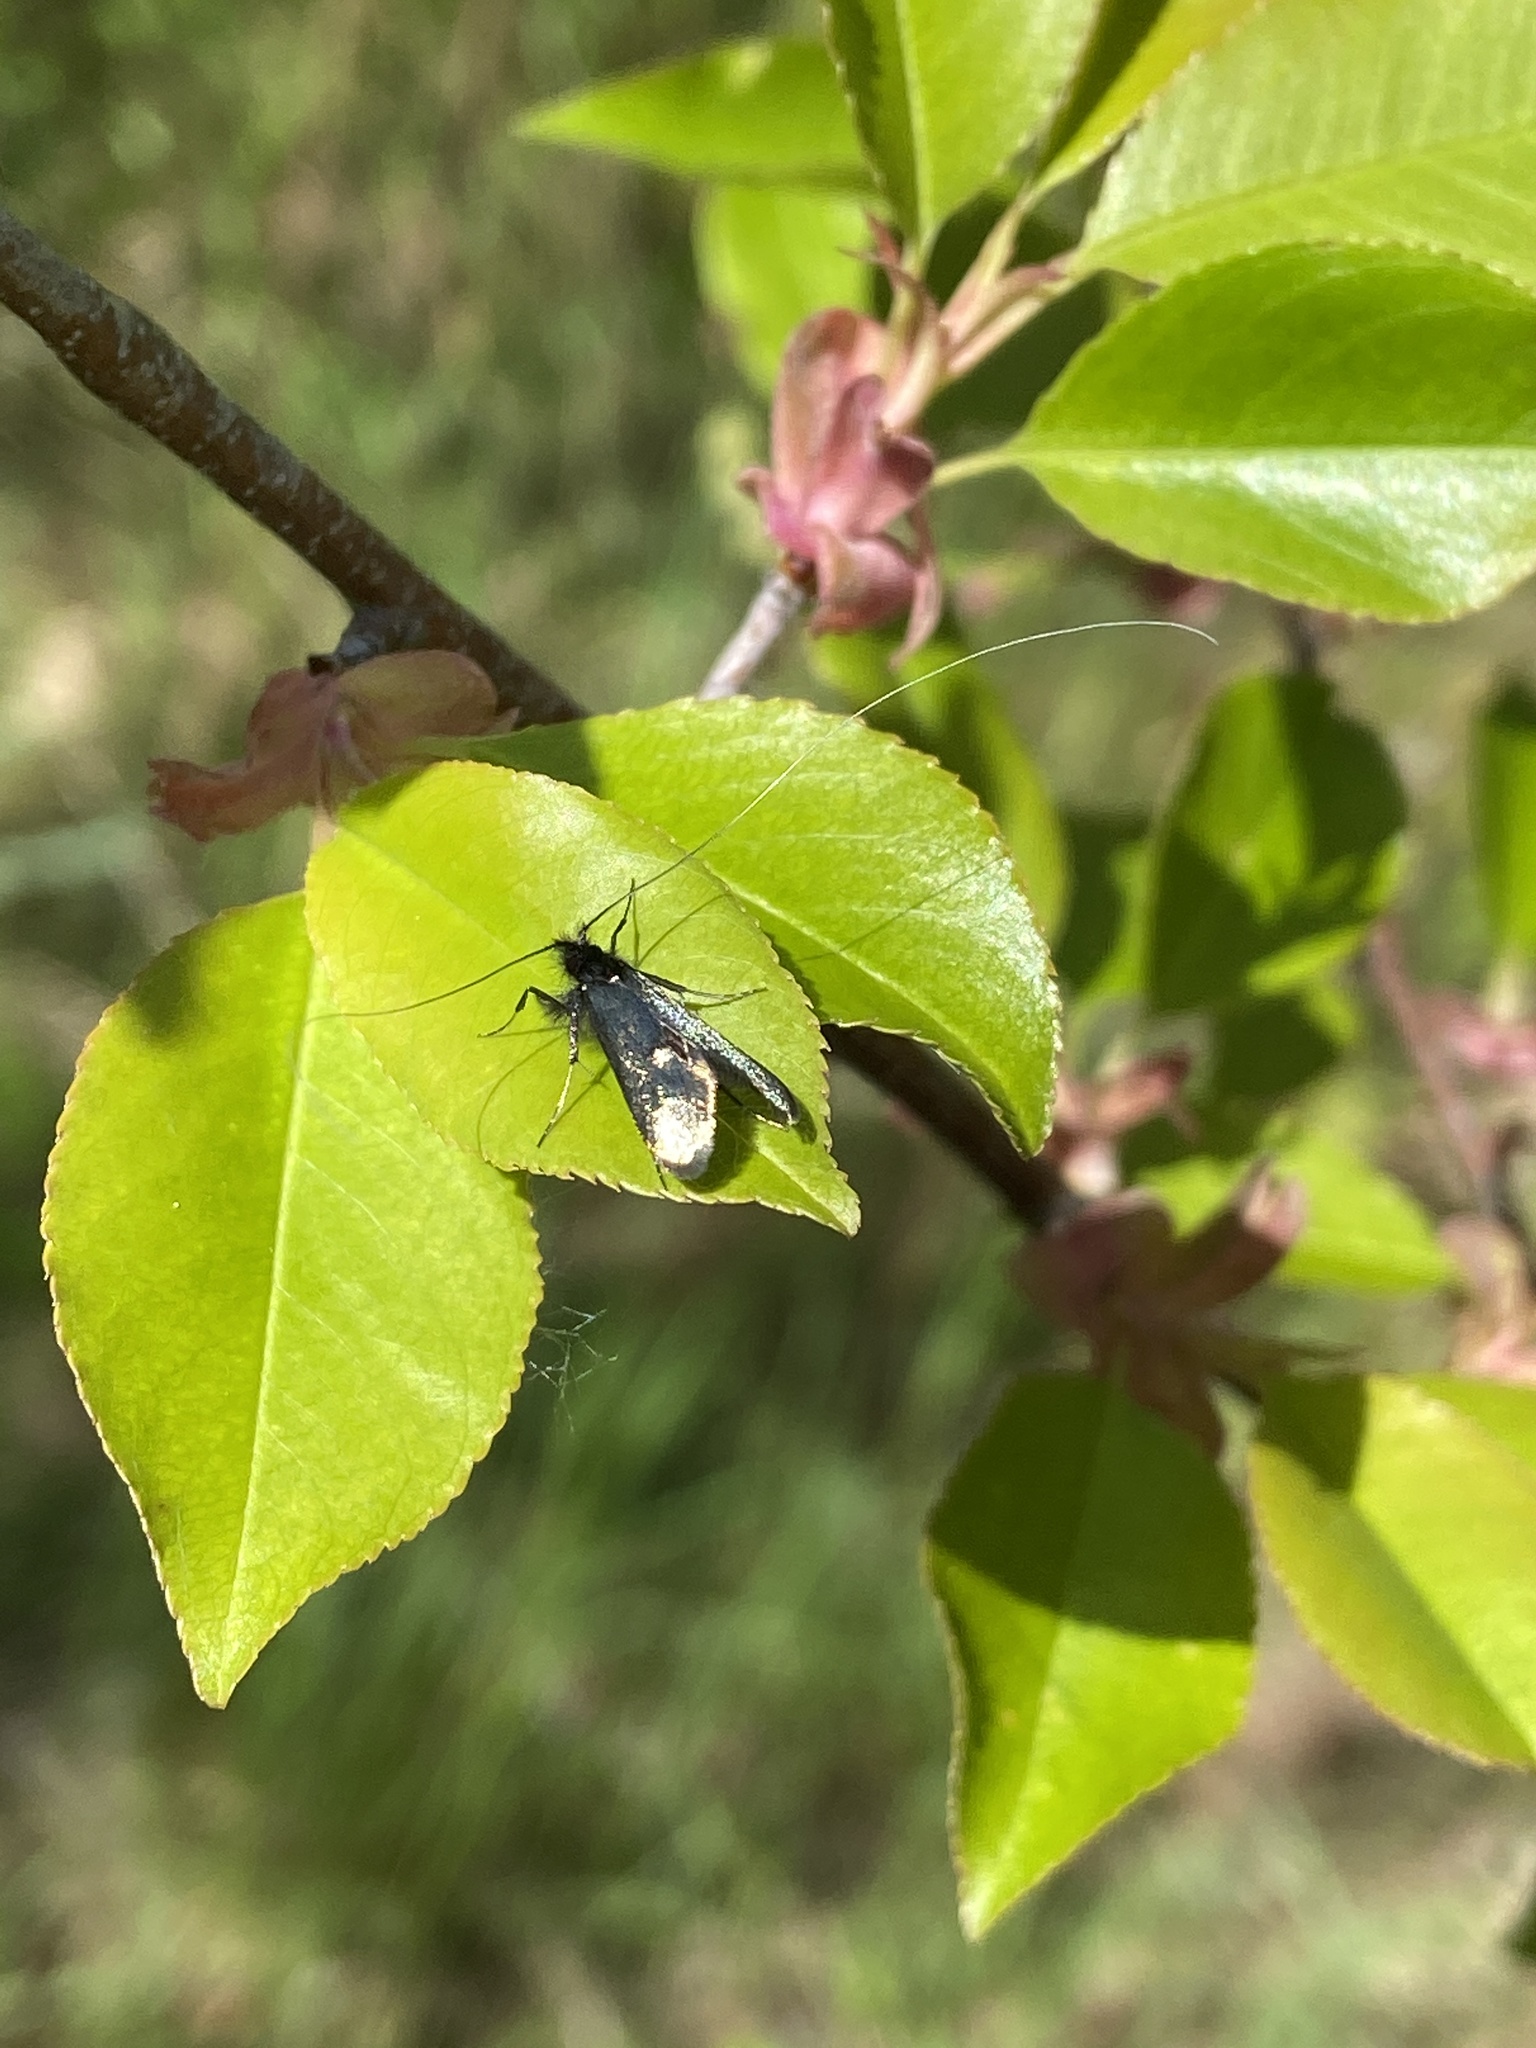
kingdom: Animalia
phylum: Arthropoda
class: Insecta
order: Lepidoptera
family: Adelidae
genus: Adela
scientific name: Adela viridella
